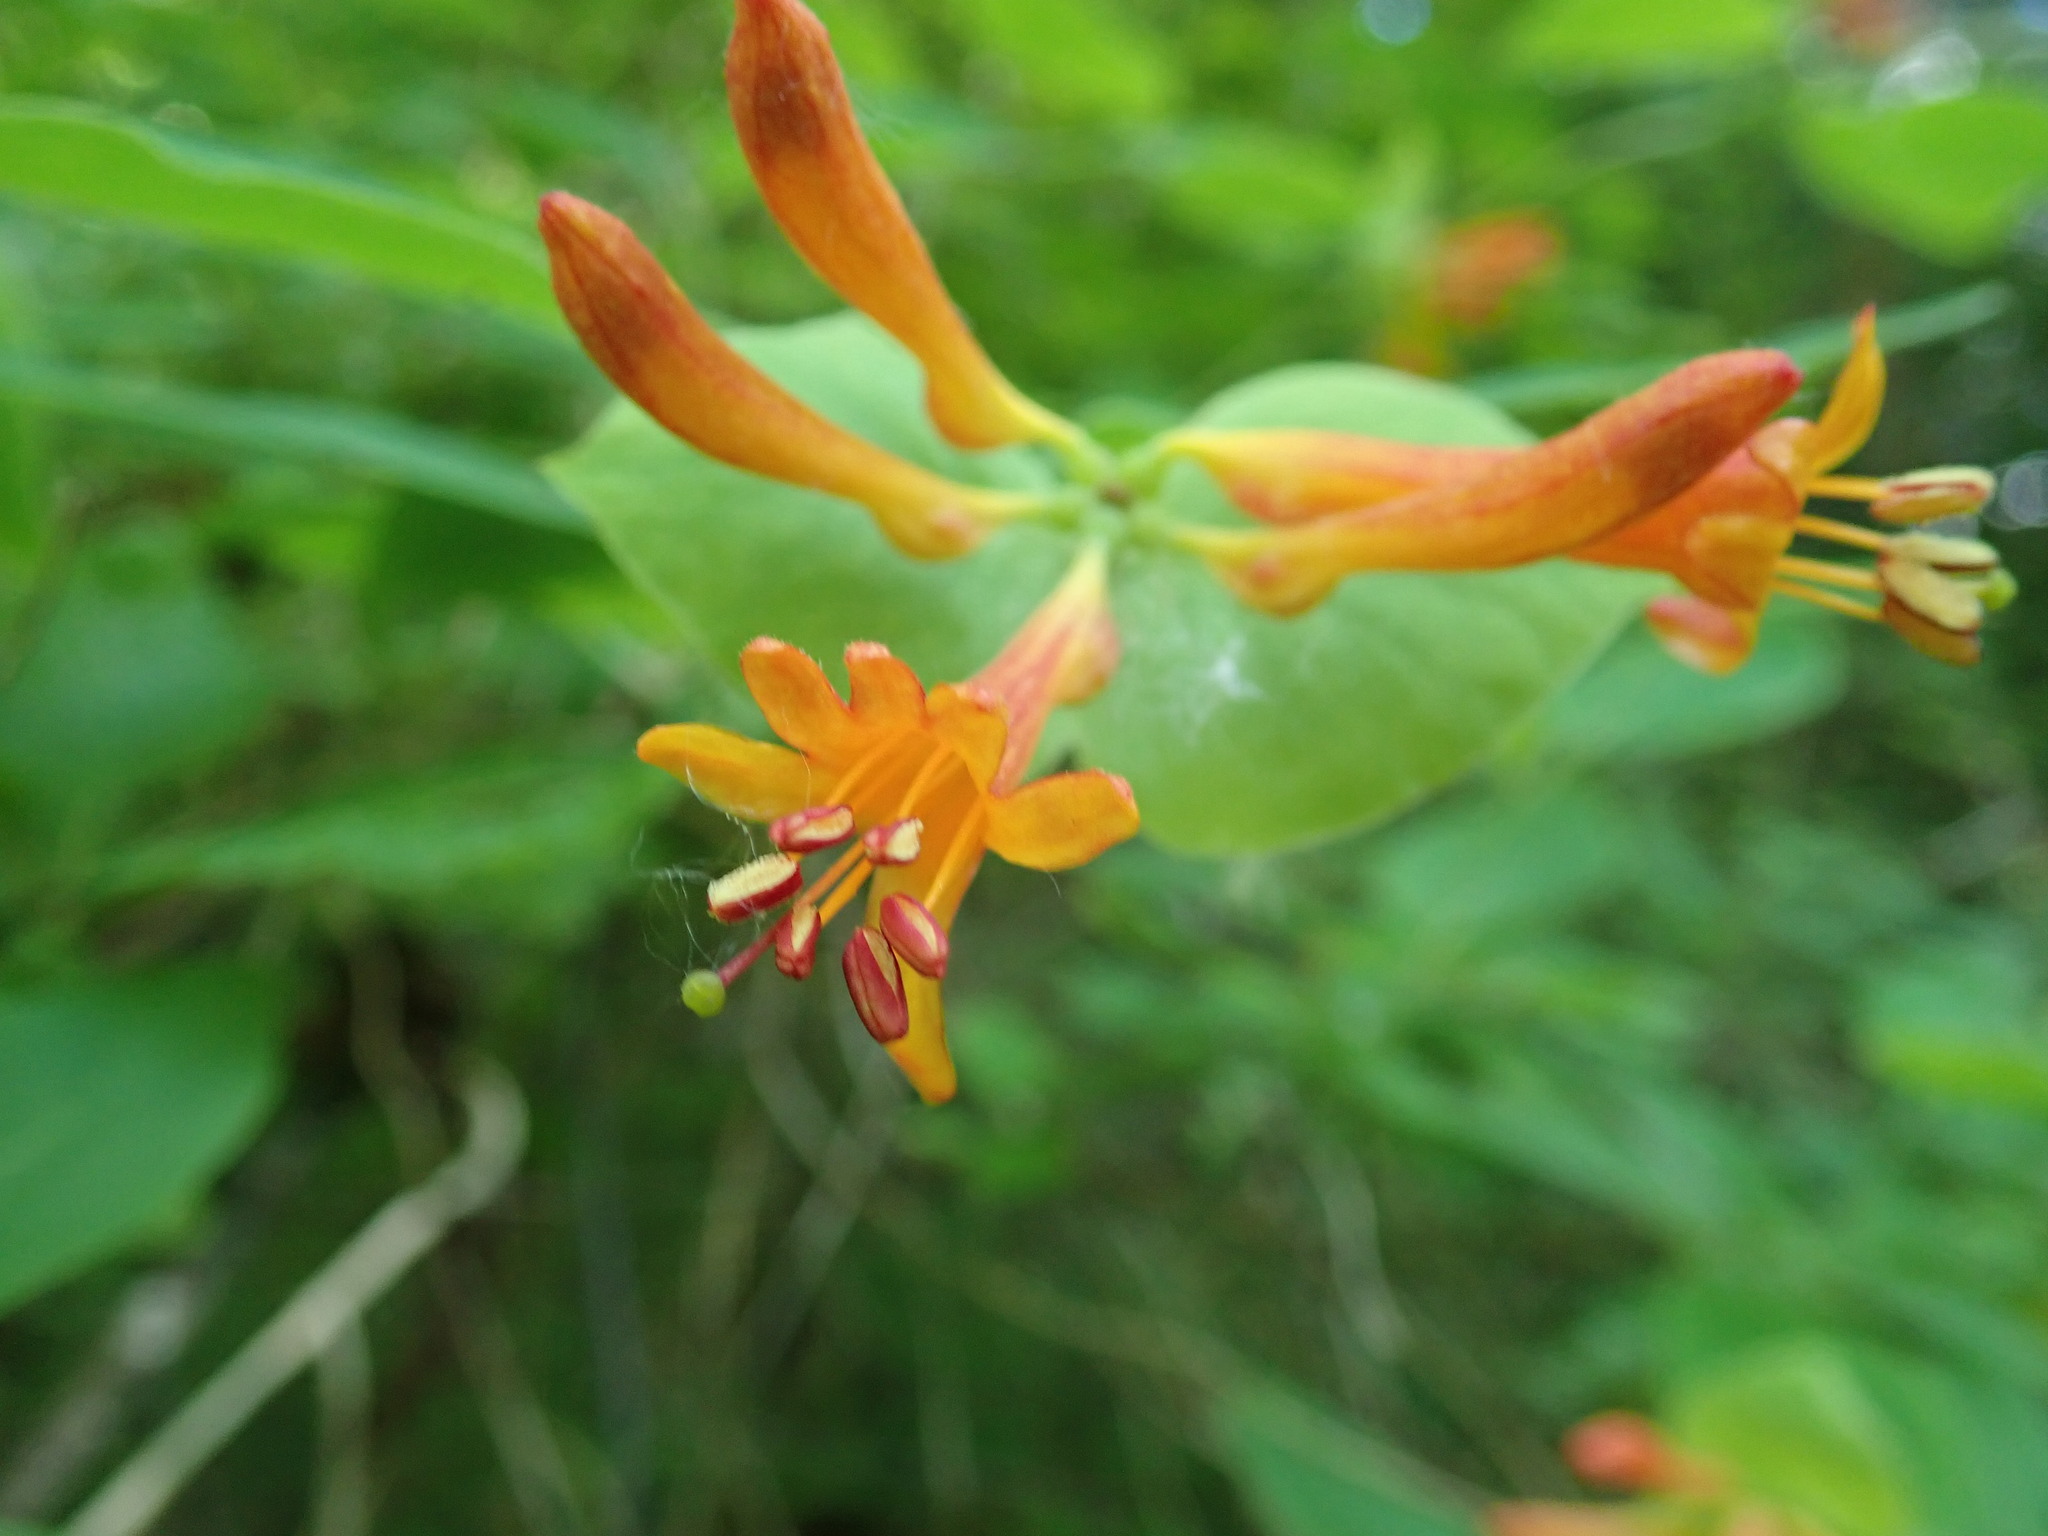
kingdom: Plantae
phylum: Tracheophyta
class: Magnoliopsida
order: Dipsacales
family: Caprifoliaceae
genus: Lonicera
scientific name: Lonicera ciliosa
